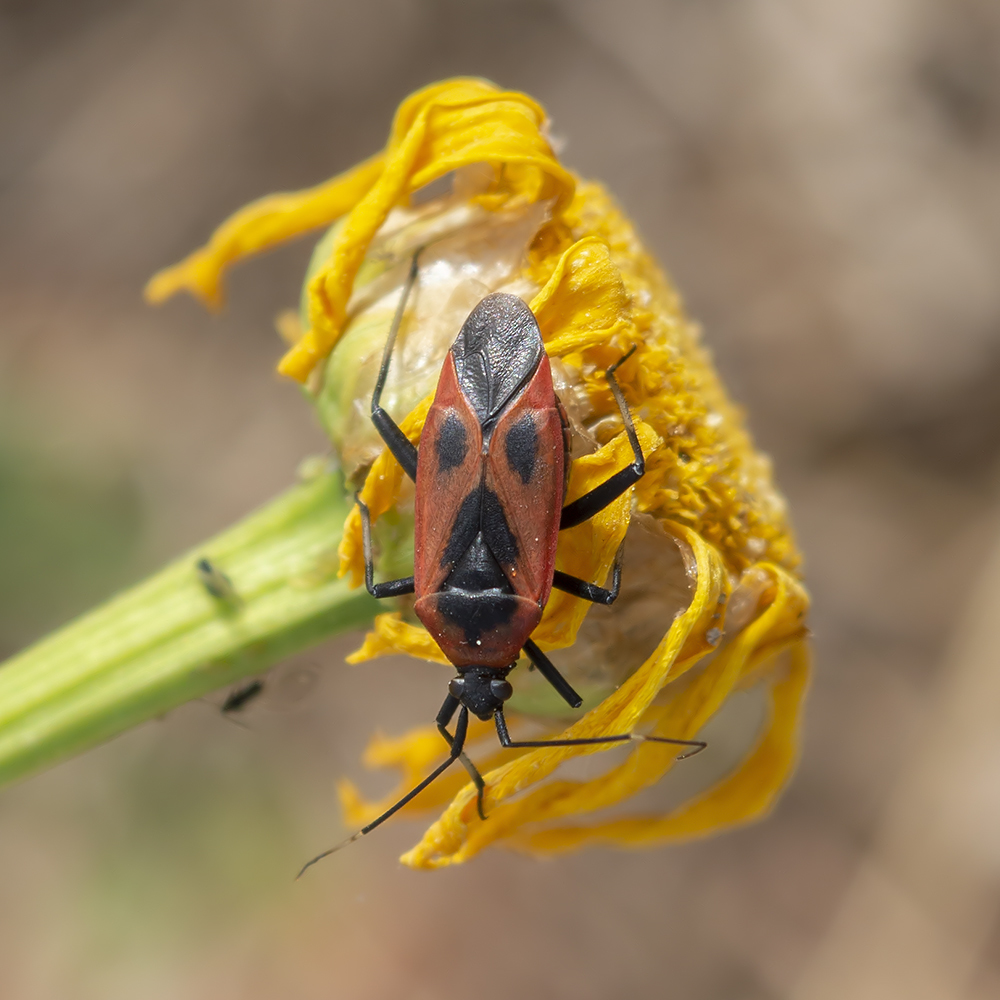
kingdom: Animalia
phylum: Arthropoda
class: Insecta
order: Hemiptera
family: Miridae
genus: Calocoris
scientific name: Calocoris nemoralis
